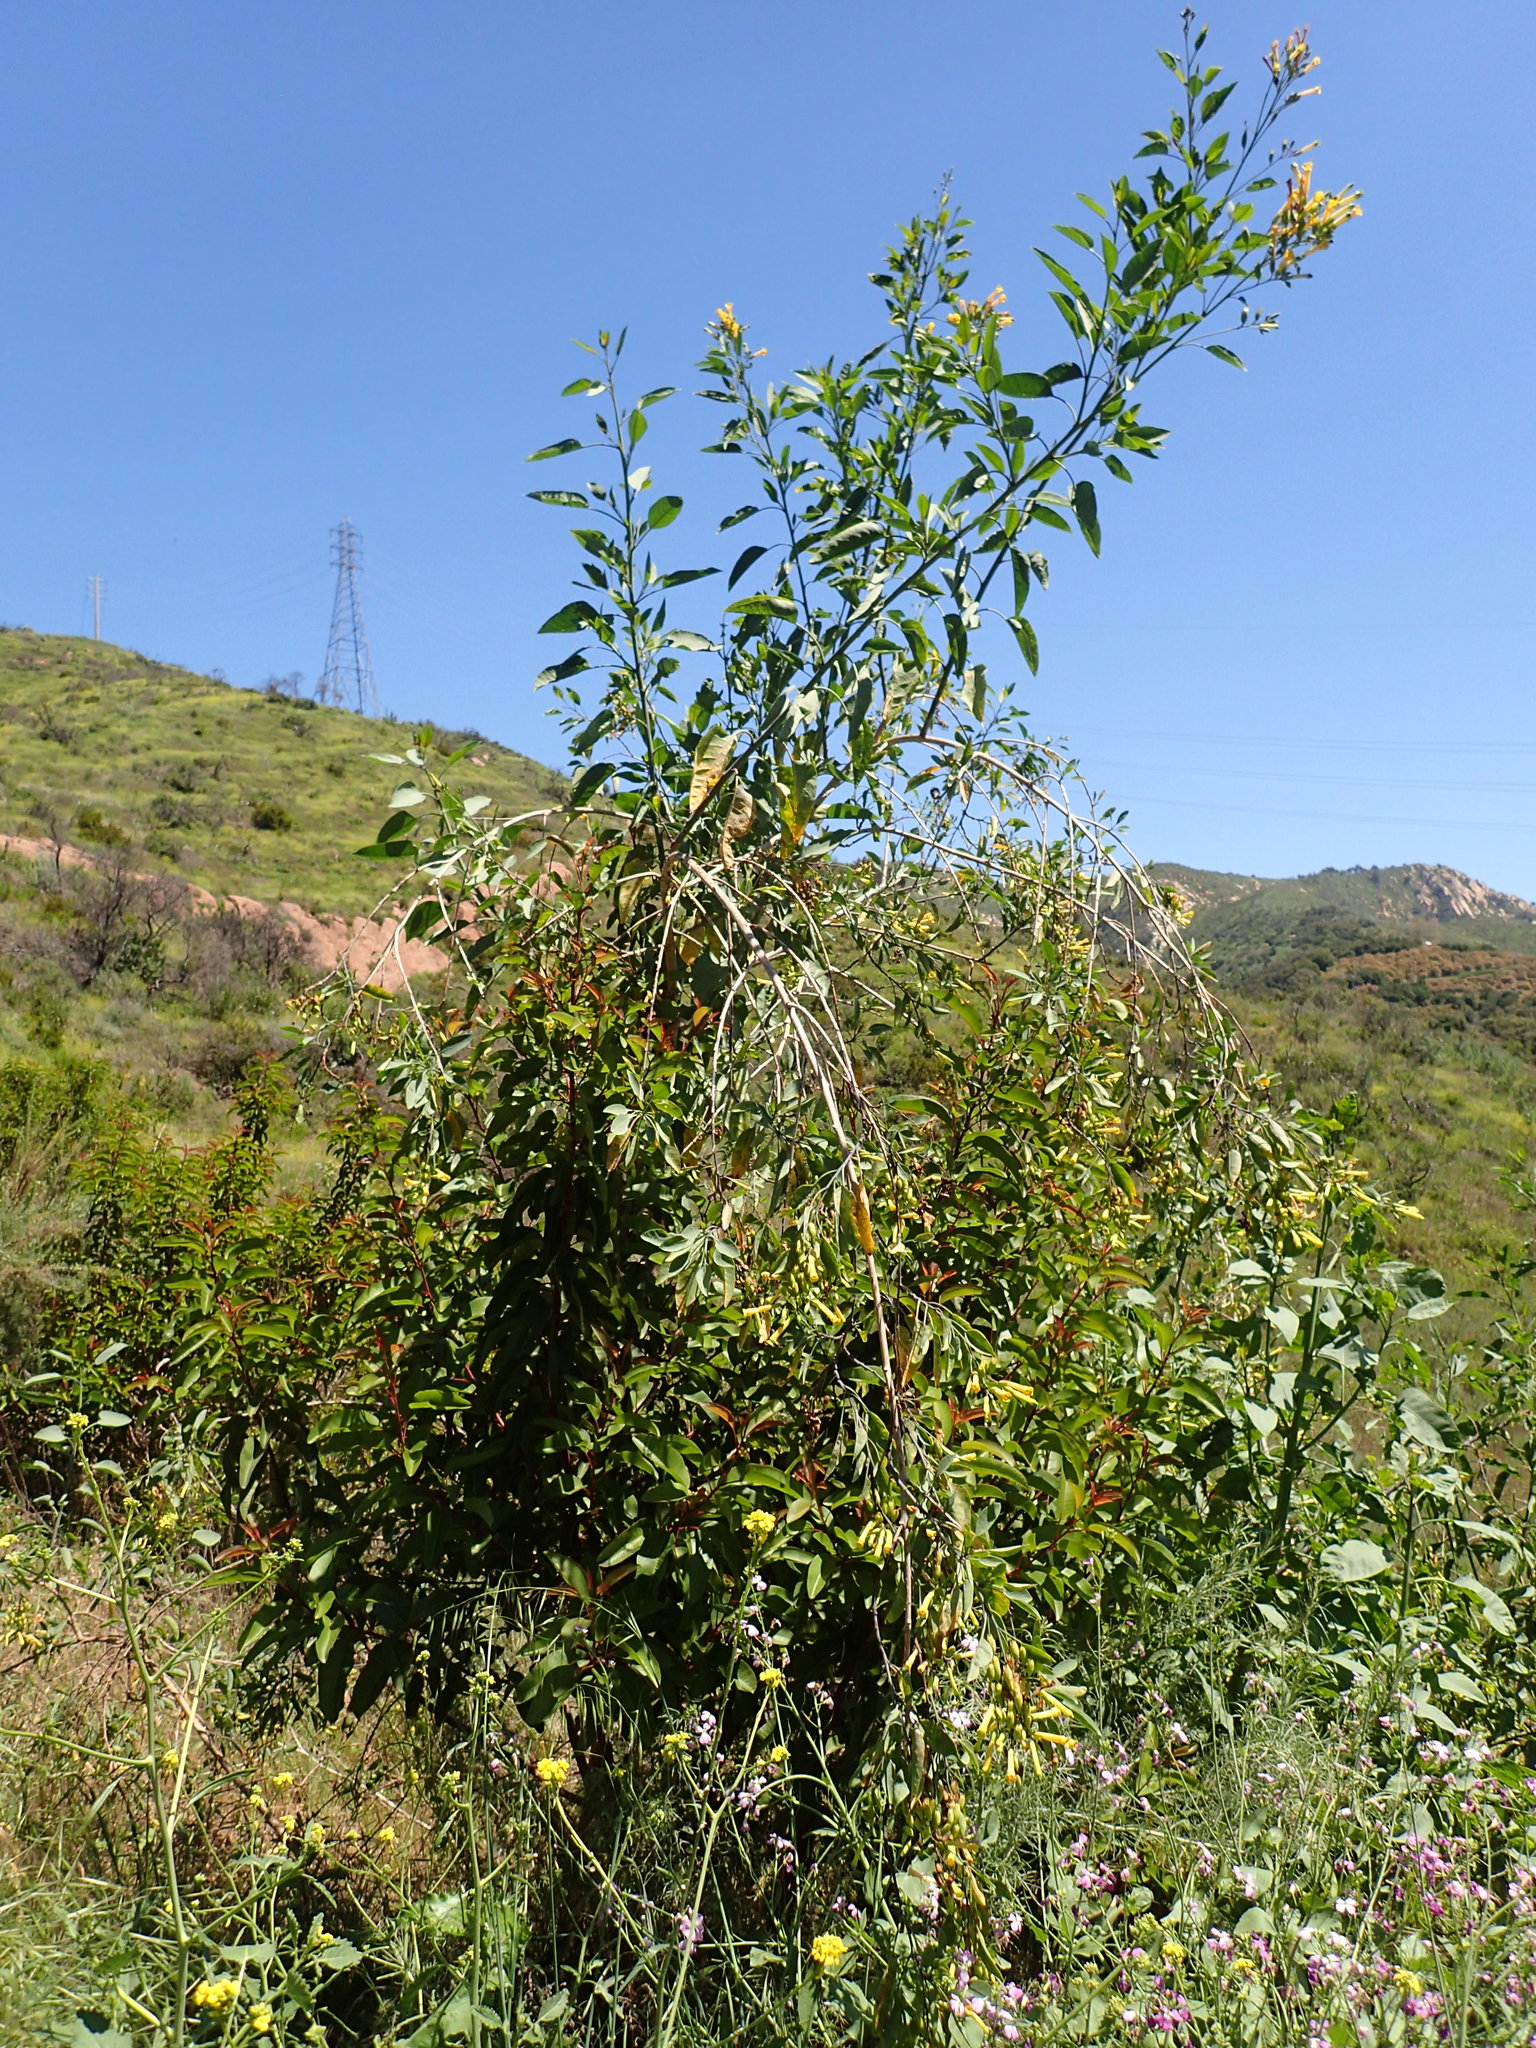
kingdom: Plantae
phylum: Tracheophyta
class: Magnoliopsida
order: Solanales
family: Solanaceae
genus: Nicotiana
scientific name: Nicotiana glauca
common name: Tree tobacco
